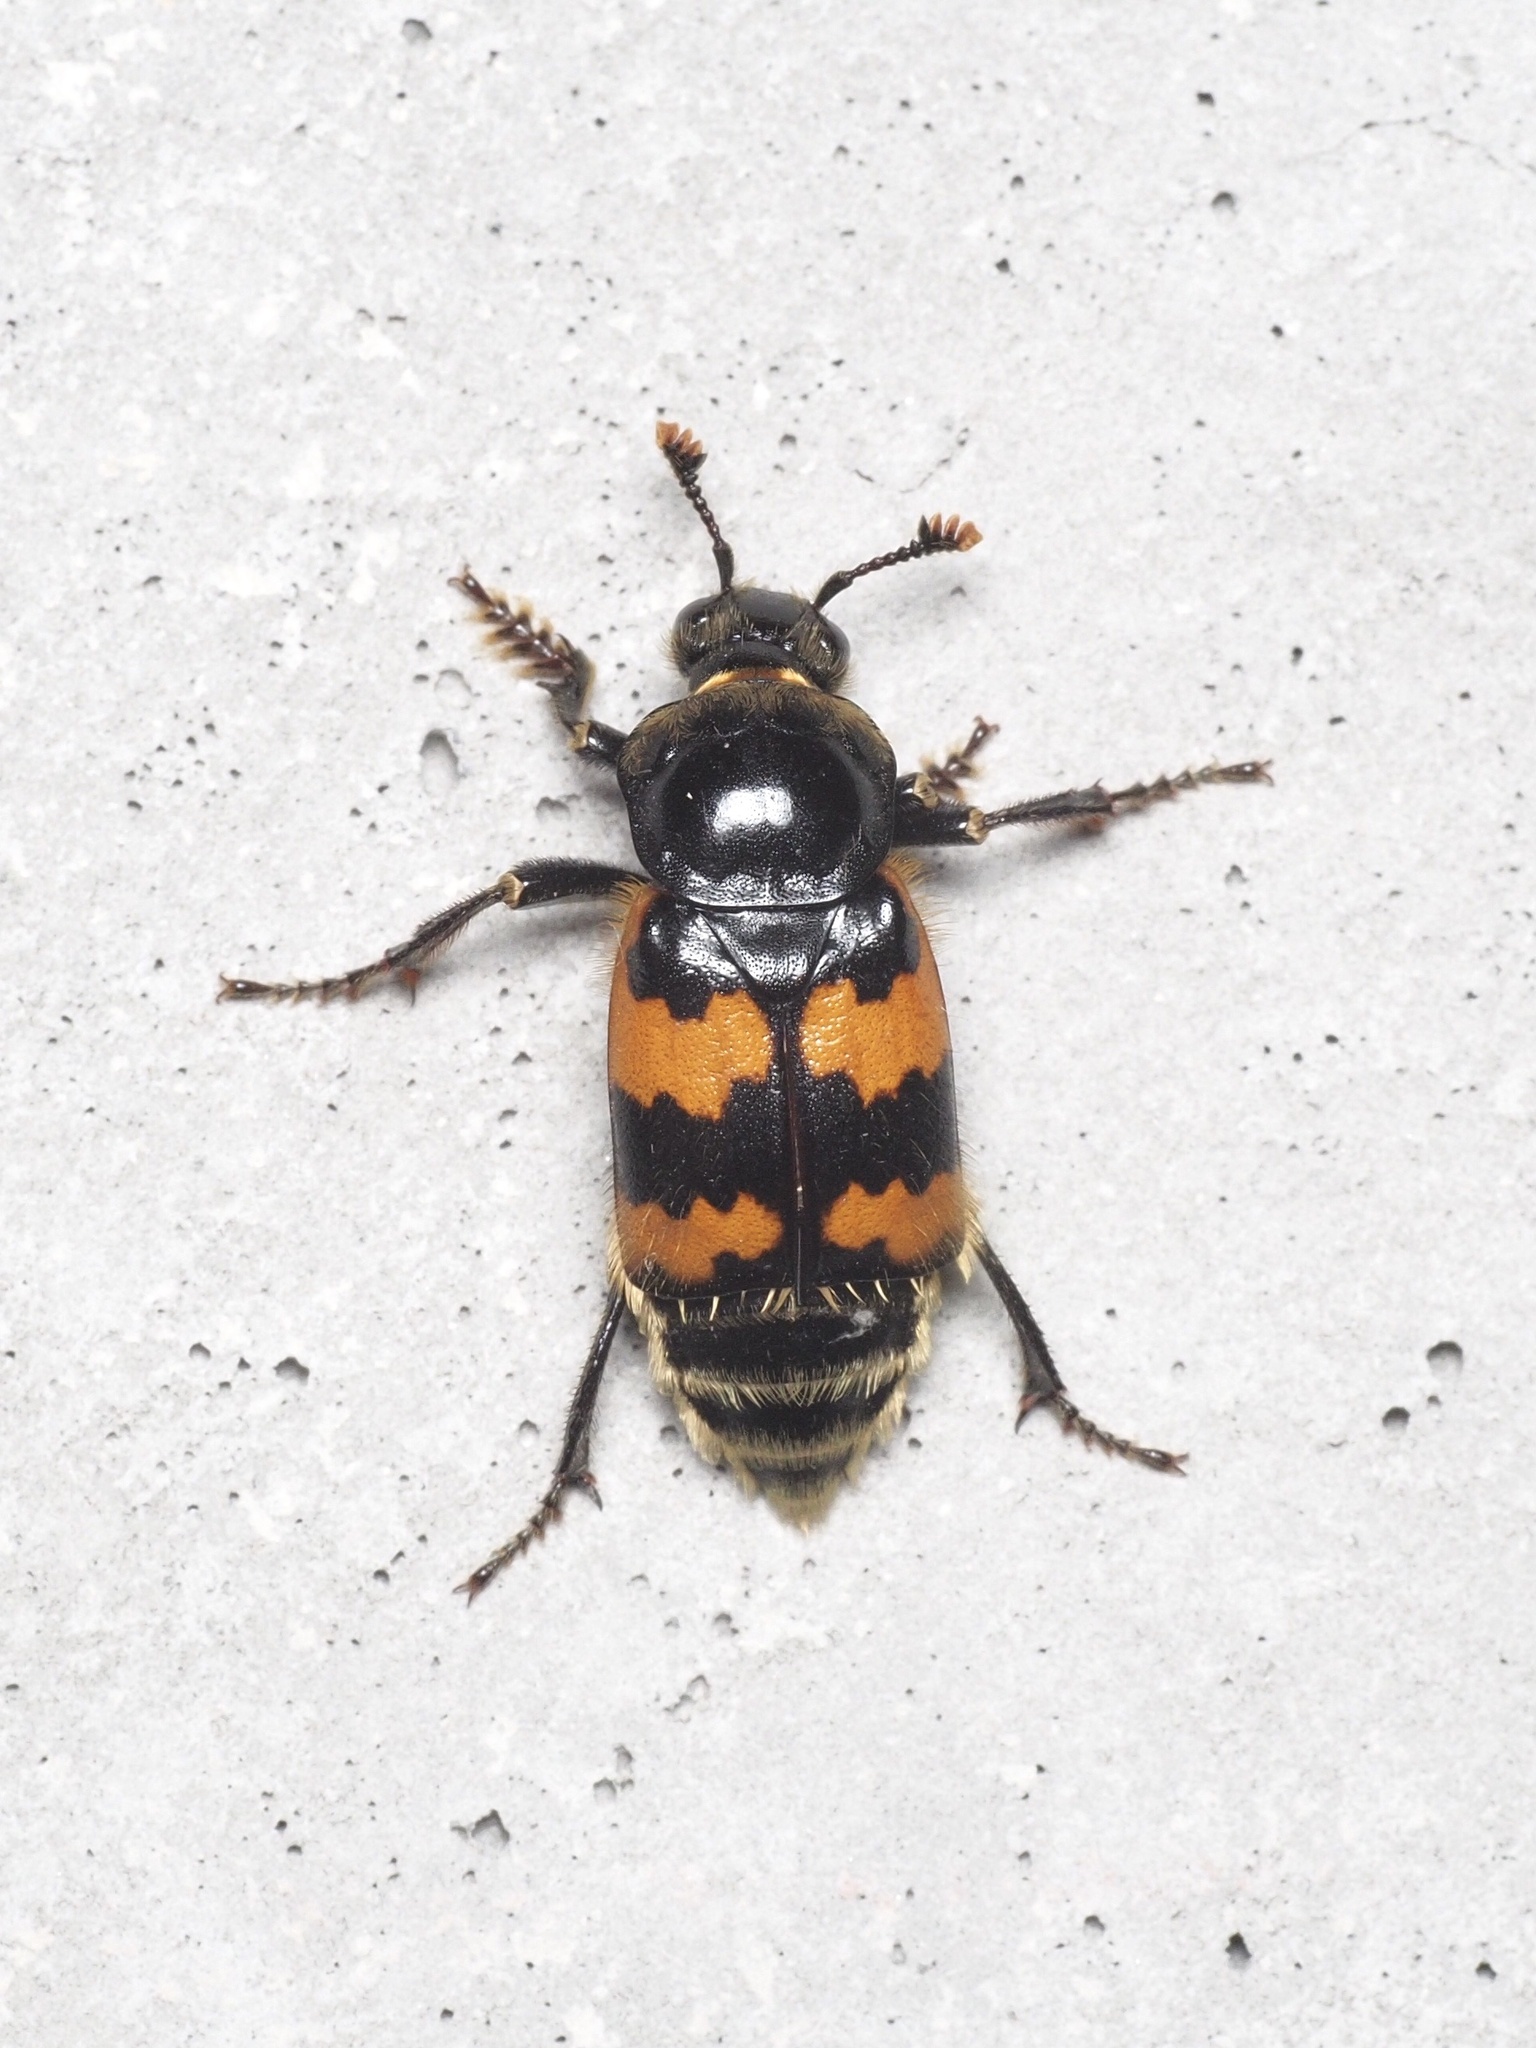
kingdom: Animalia
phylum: Arthropoda
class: Insecta
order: Coleoptera
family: Staphylinidae
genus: Nicrophorus
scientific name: Nicrophorus vespillo
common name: Common burying beetle
